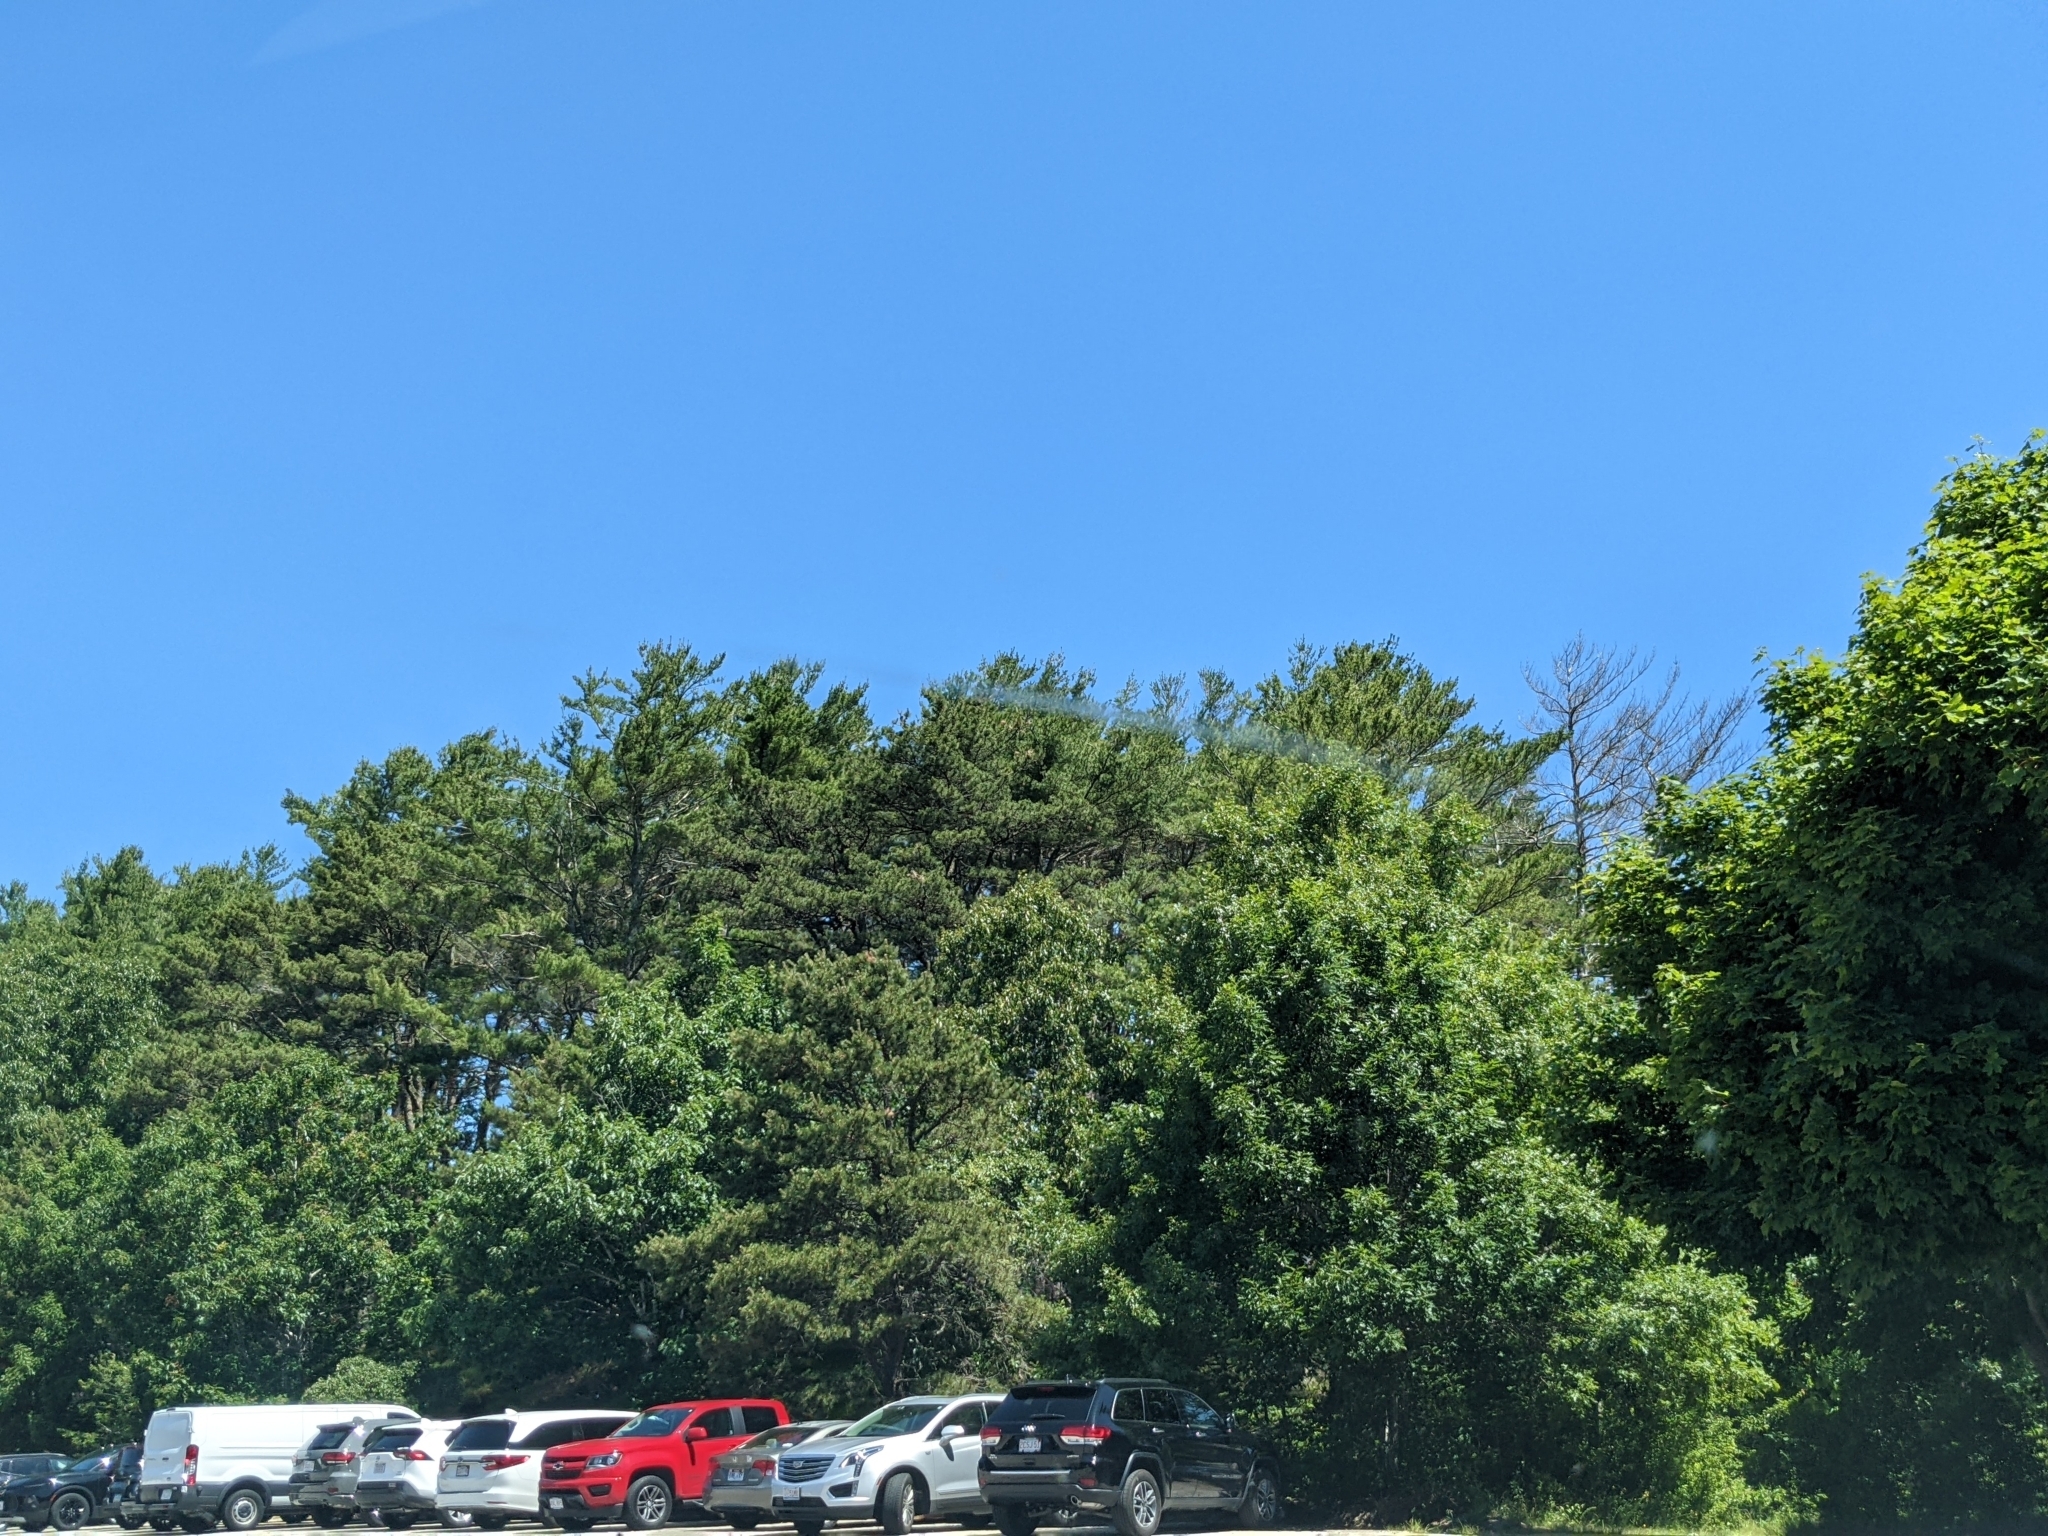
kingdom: Plantae
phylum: Tracheophyta
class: Pinopsida
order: Pinales
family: Pinaceae
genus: Pinus
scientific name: Pinus strobus
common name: Weymouth pine
